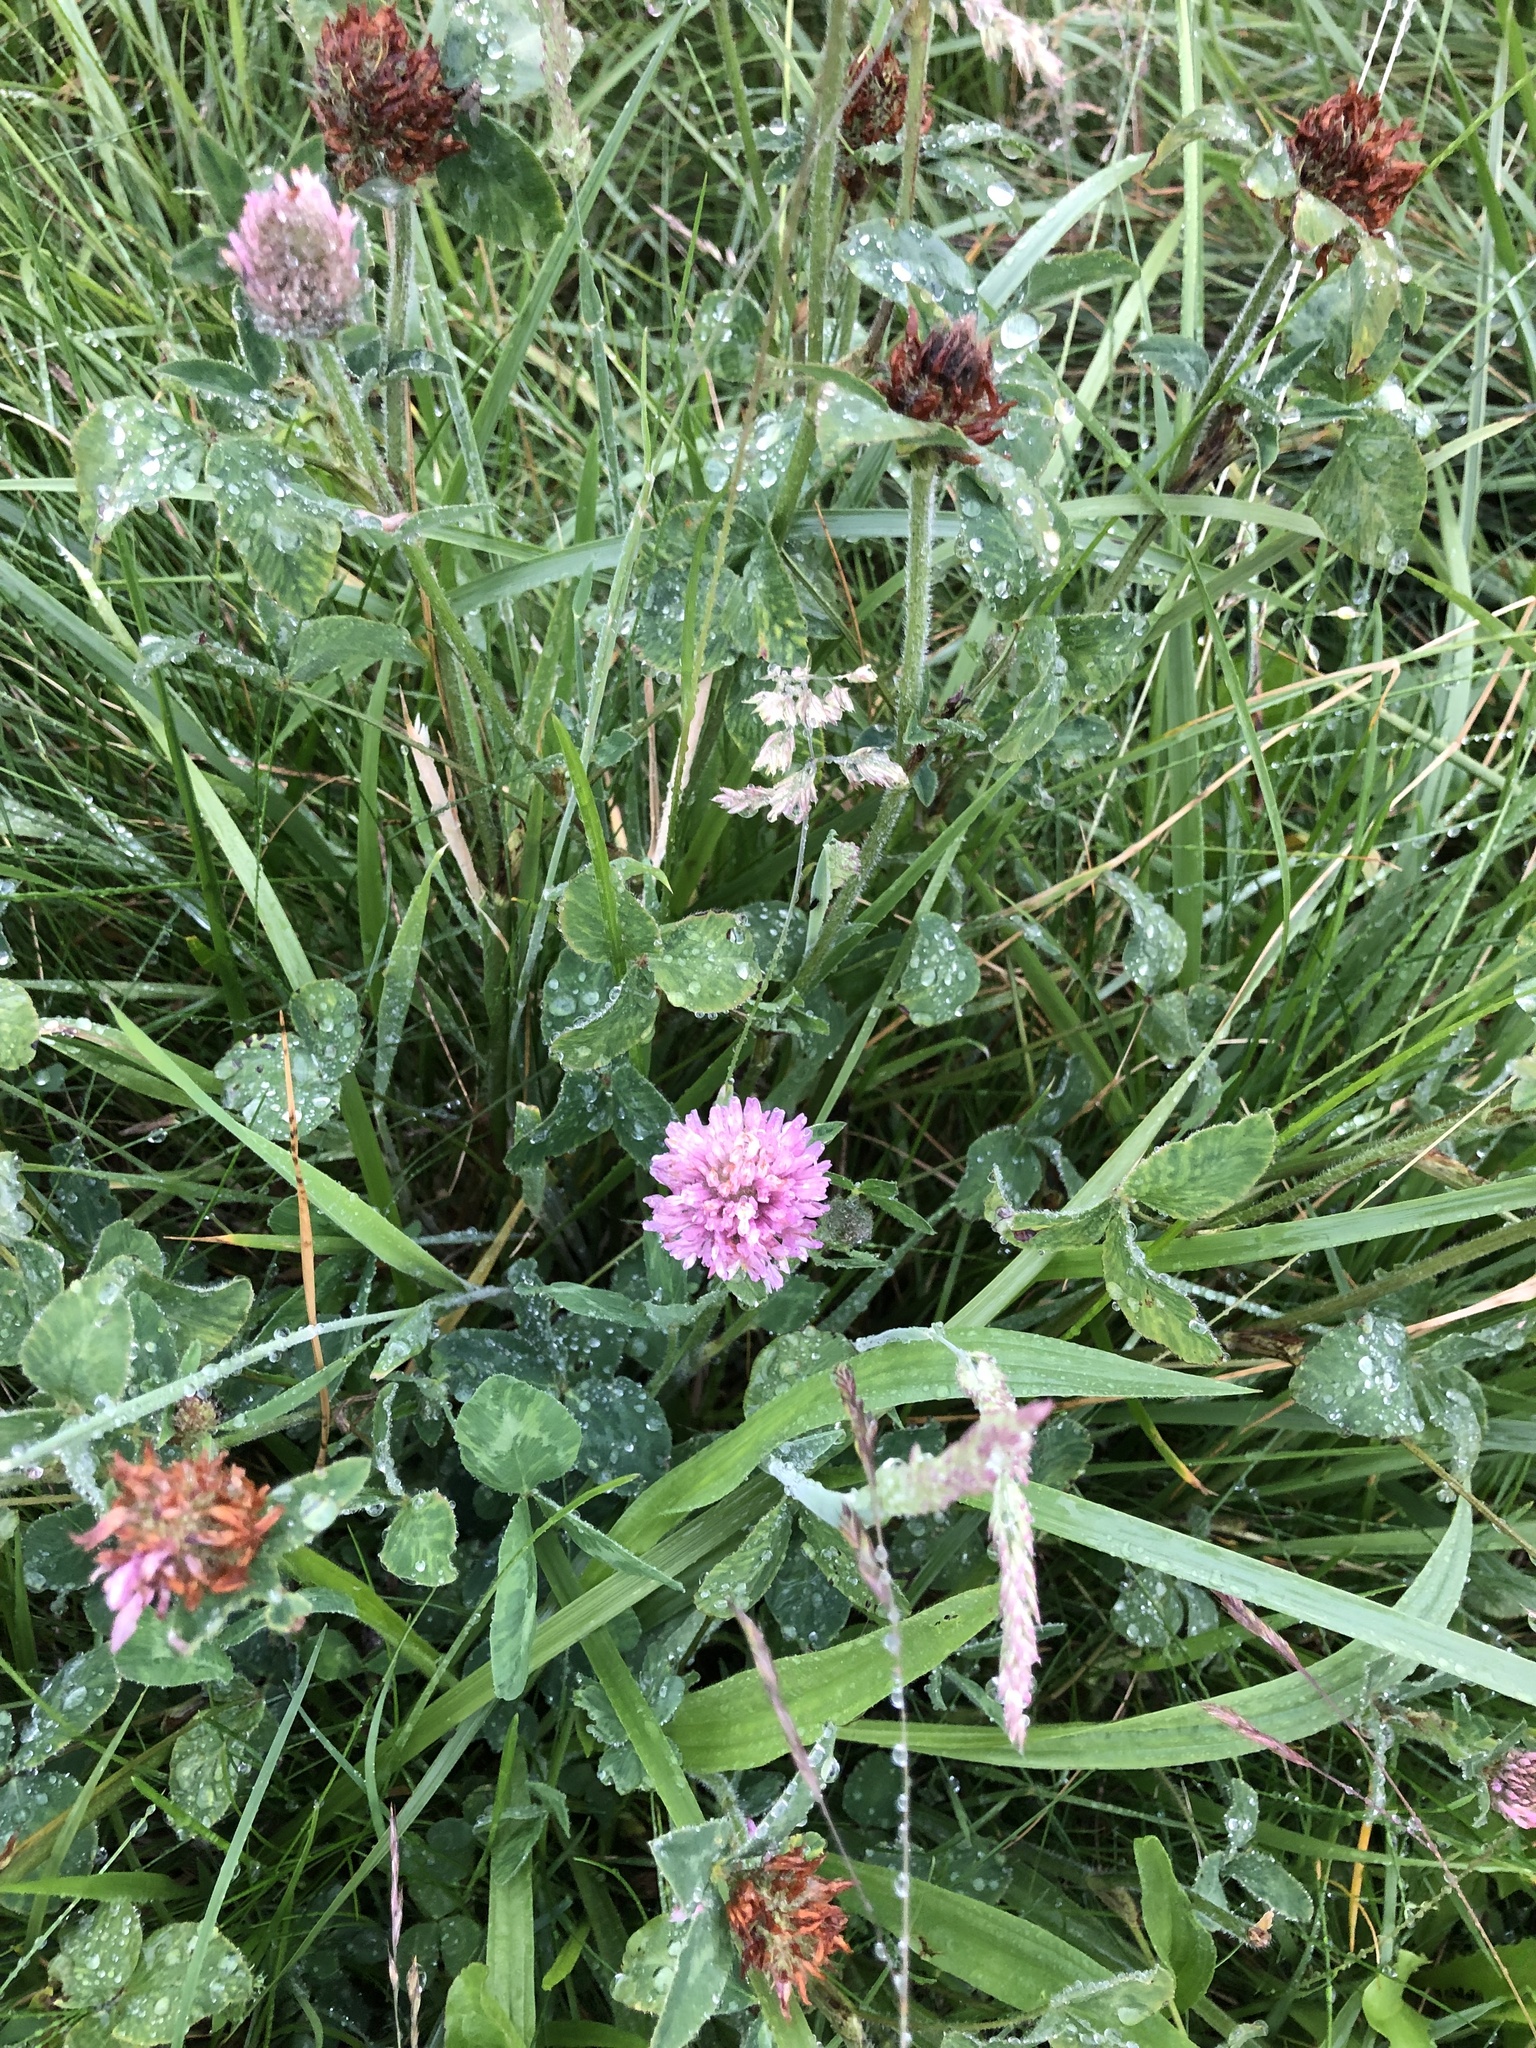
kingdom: Plantae
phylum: Tracheophyta
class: Magnoliopsida
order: Fabales
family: Fabaceae
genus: Trifolium
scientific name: Trifolium pratense
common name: Red clover
